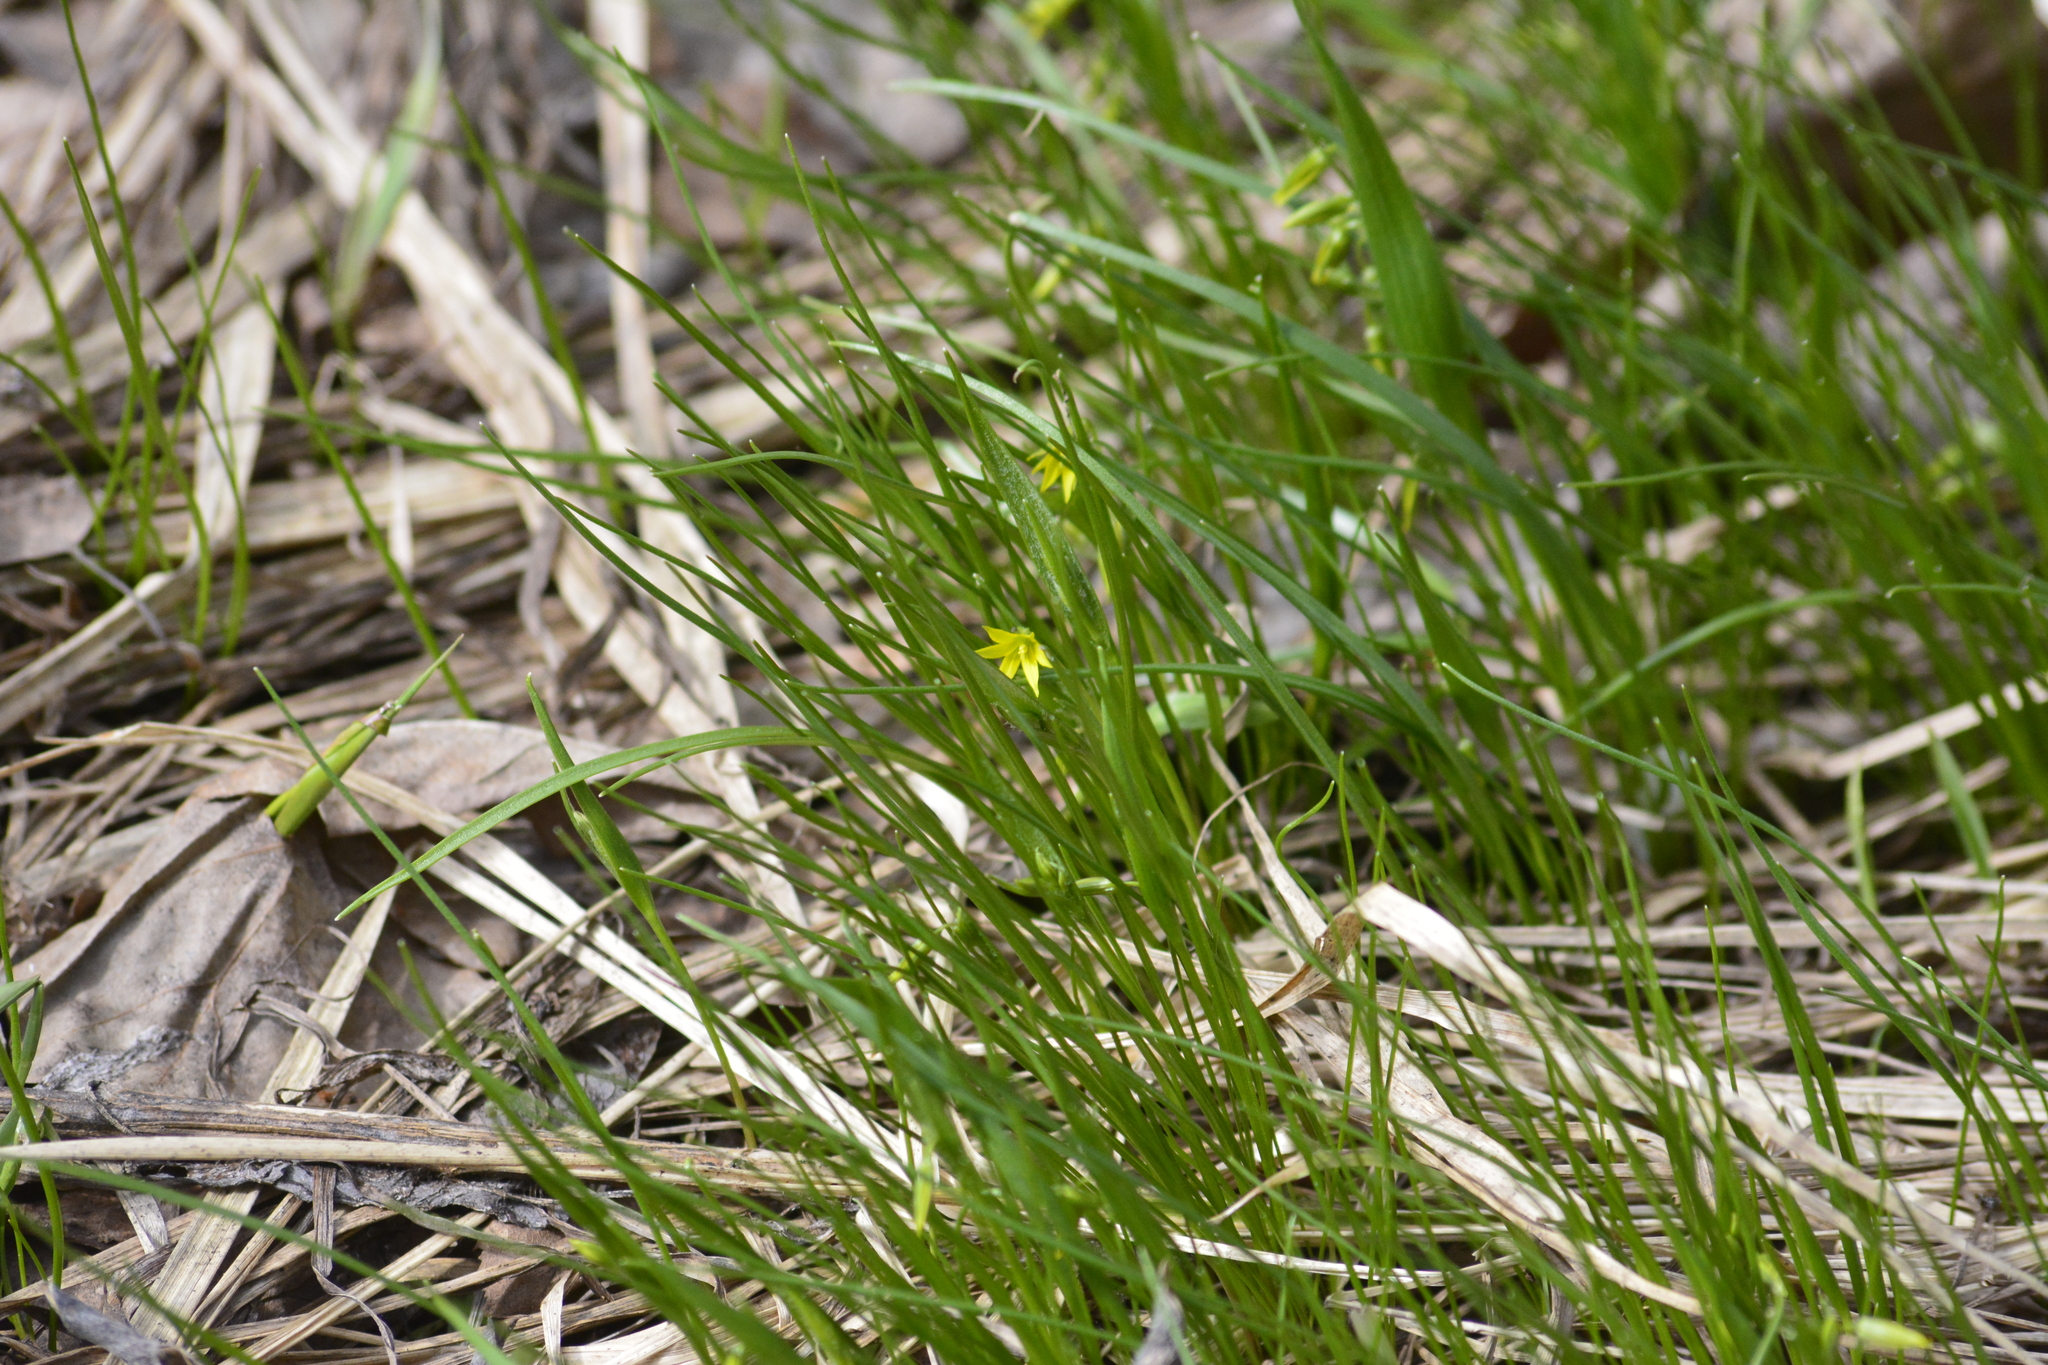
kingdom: Plantae
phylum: Tracheophyta
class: Liliopsida
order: Liliales
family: Liliaceae
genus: Gagea
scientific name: Gagea minima
